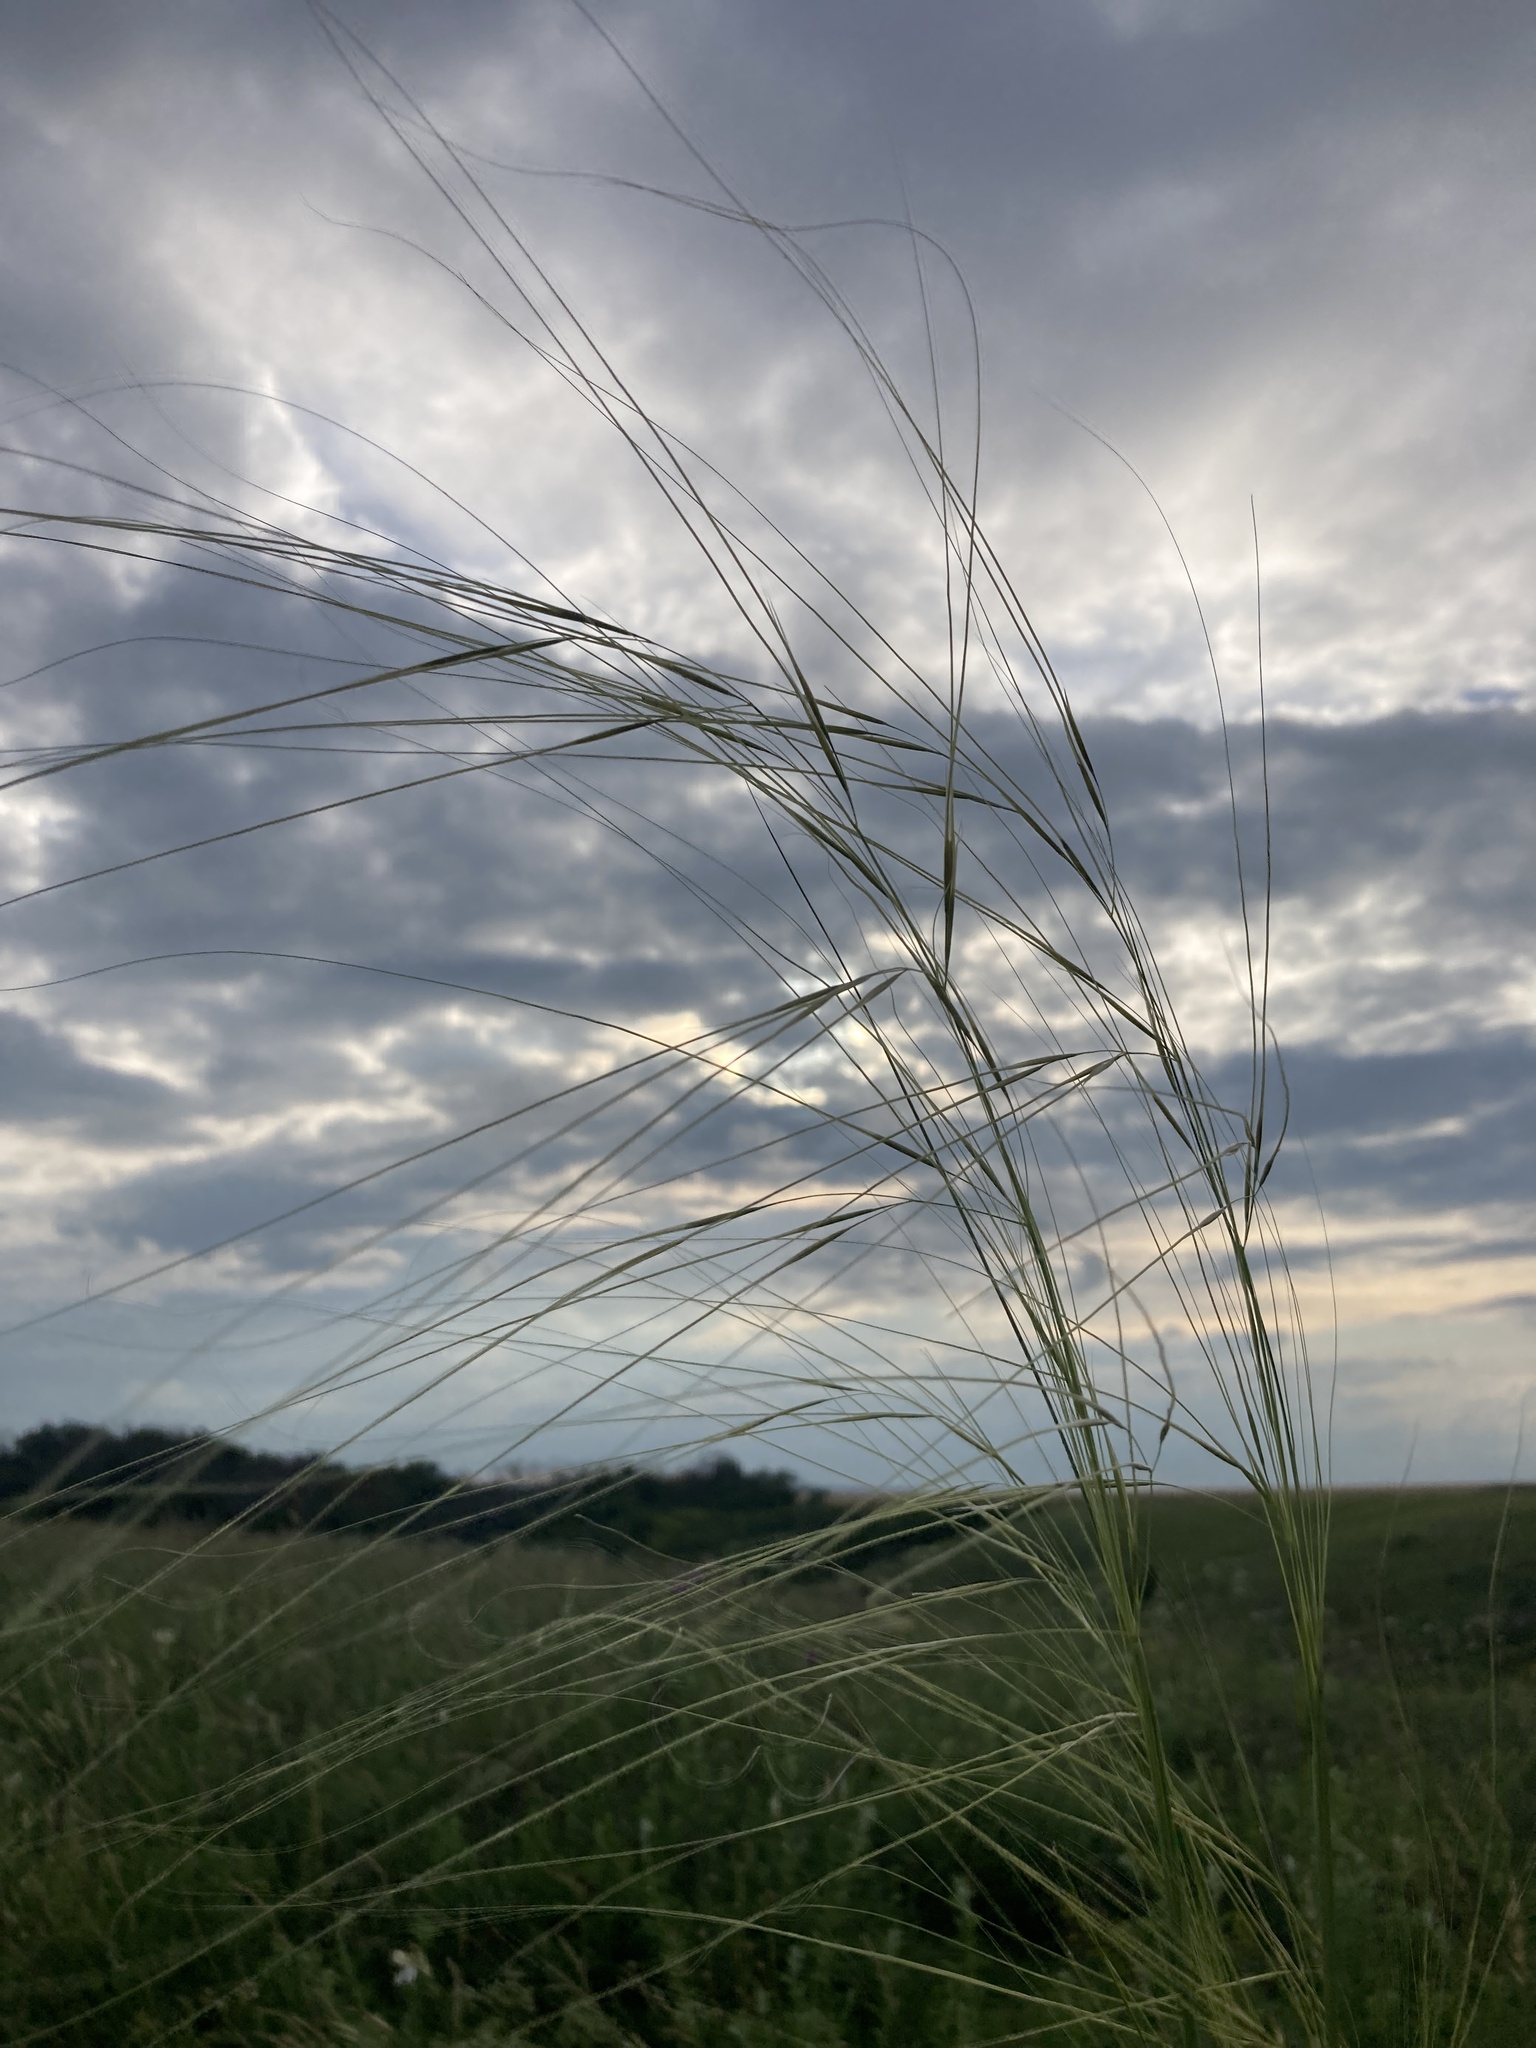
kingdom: Plantae
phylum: Tracheophyta
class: Liliopsida
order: Poales
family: Poaceae
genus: Stipa
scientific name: Stipa capillata
